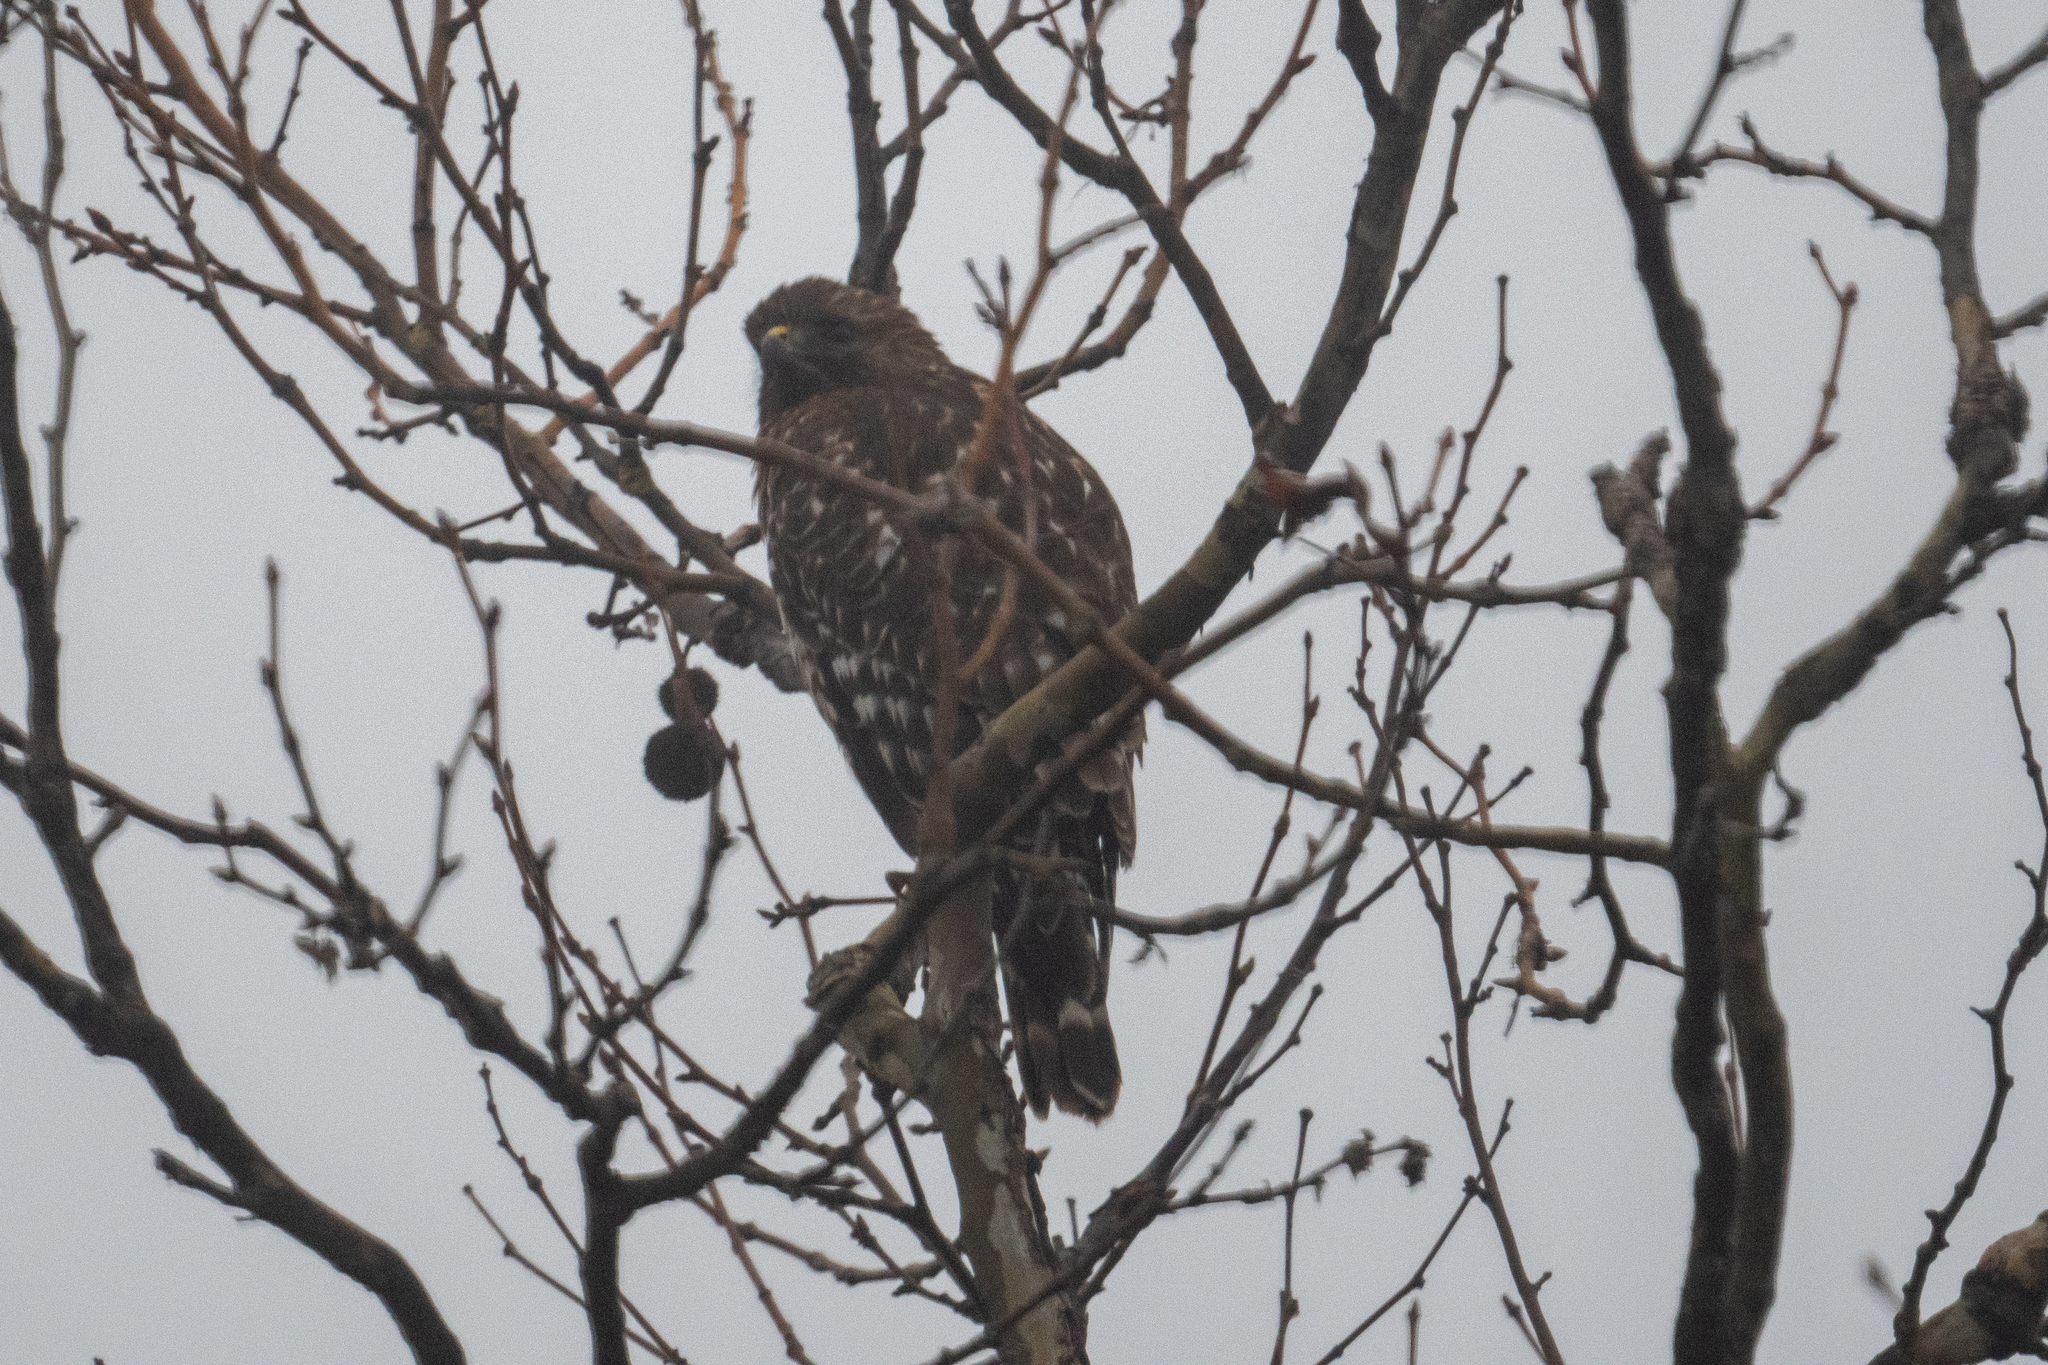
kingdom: Animalia
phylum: Chordata
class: Aves
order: Accipitriformes
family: Accipitridae
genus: Buteo
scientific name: Buteo lineatus
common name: Red-shouldered hawk
